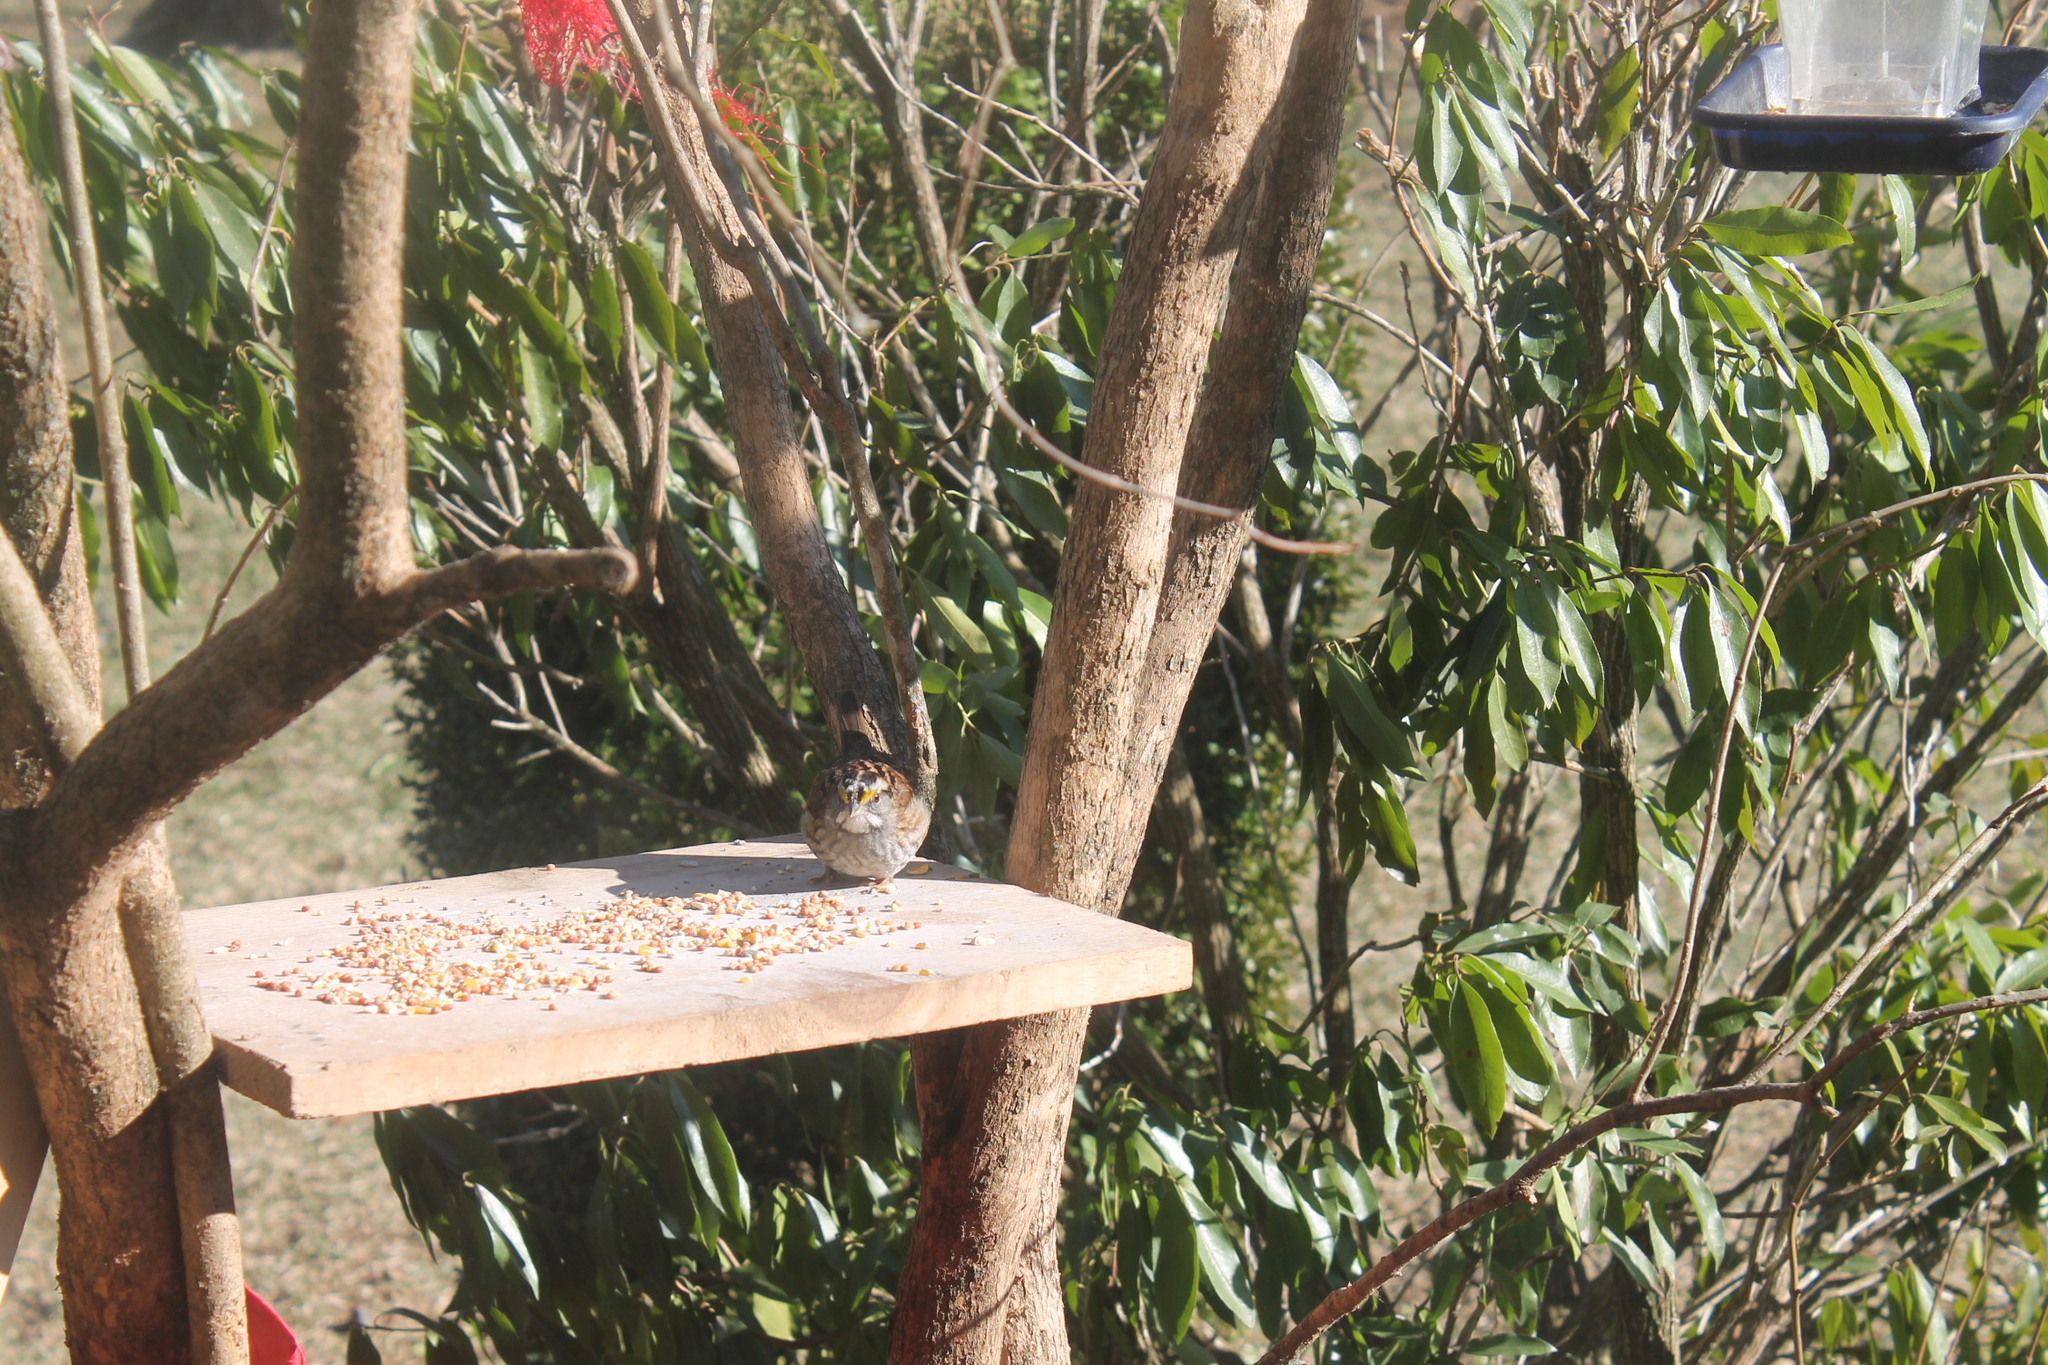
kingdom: Animalia
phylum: Chordata
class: Aves
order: Passeriformes
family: Passerellidae
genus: Zonotrichia
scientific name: Zonotrichia albicollis
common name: White-throated sparrow
